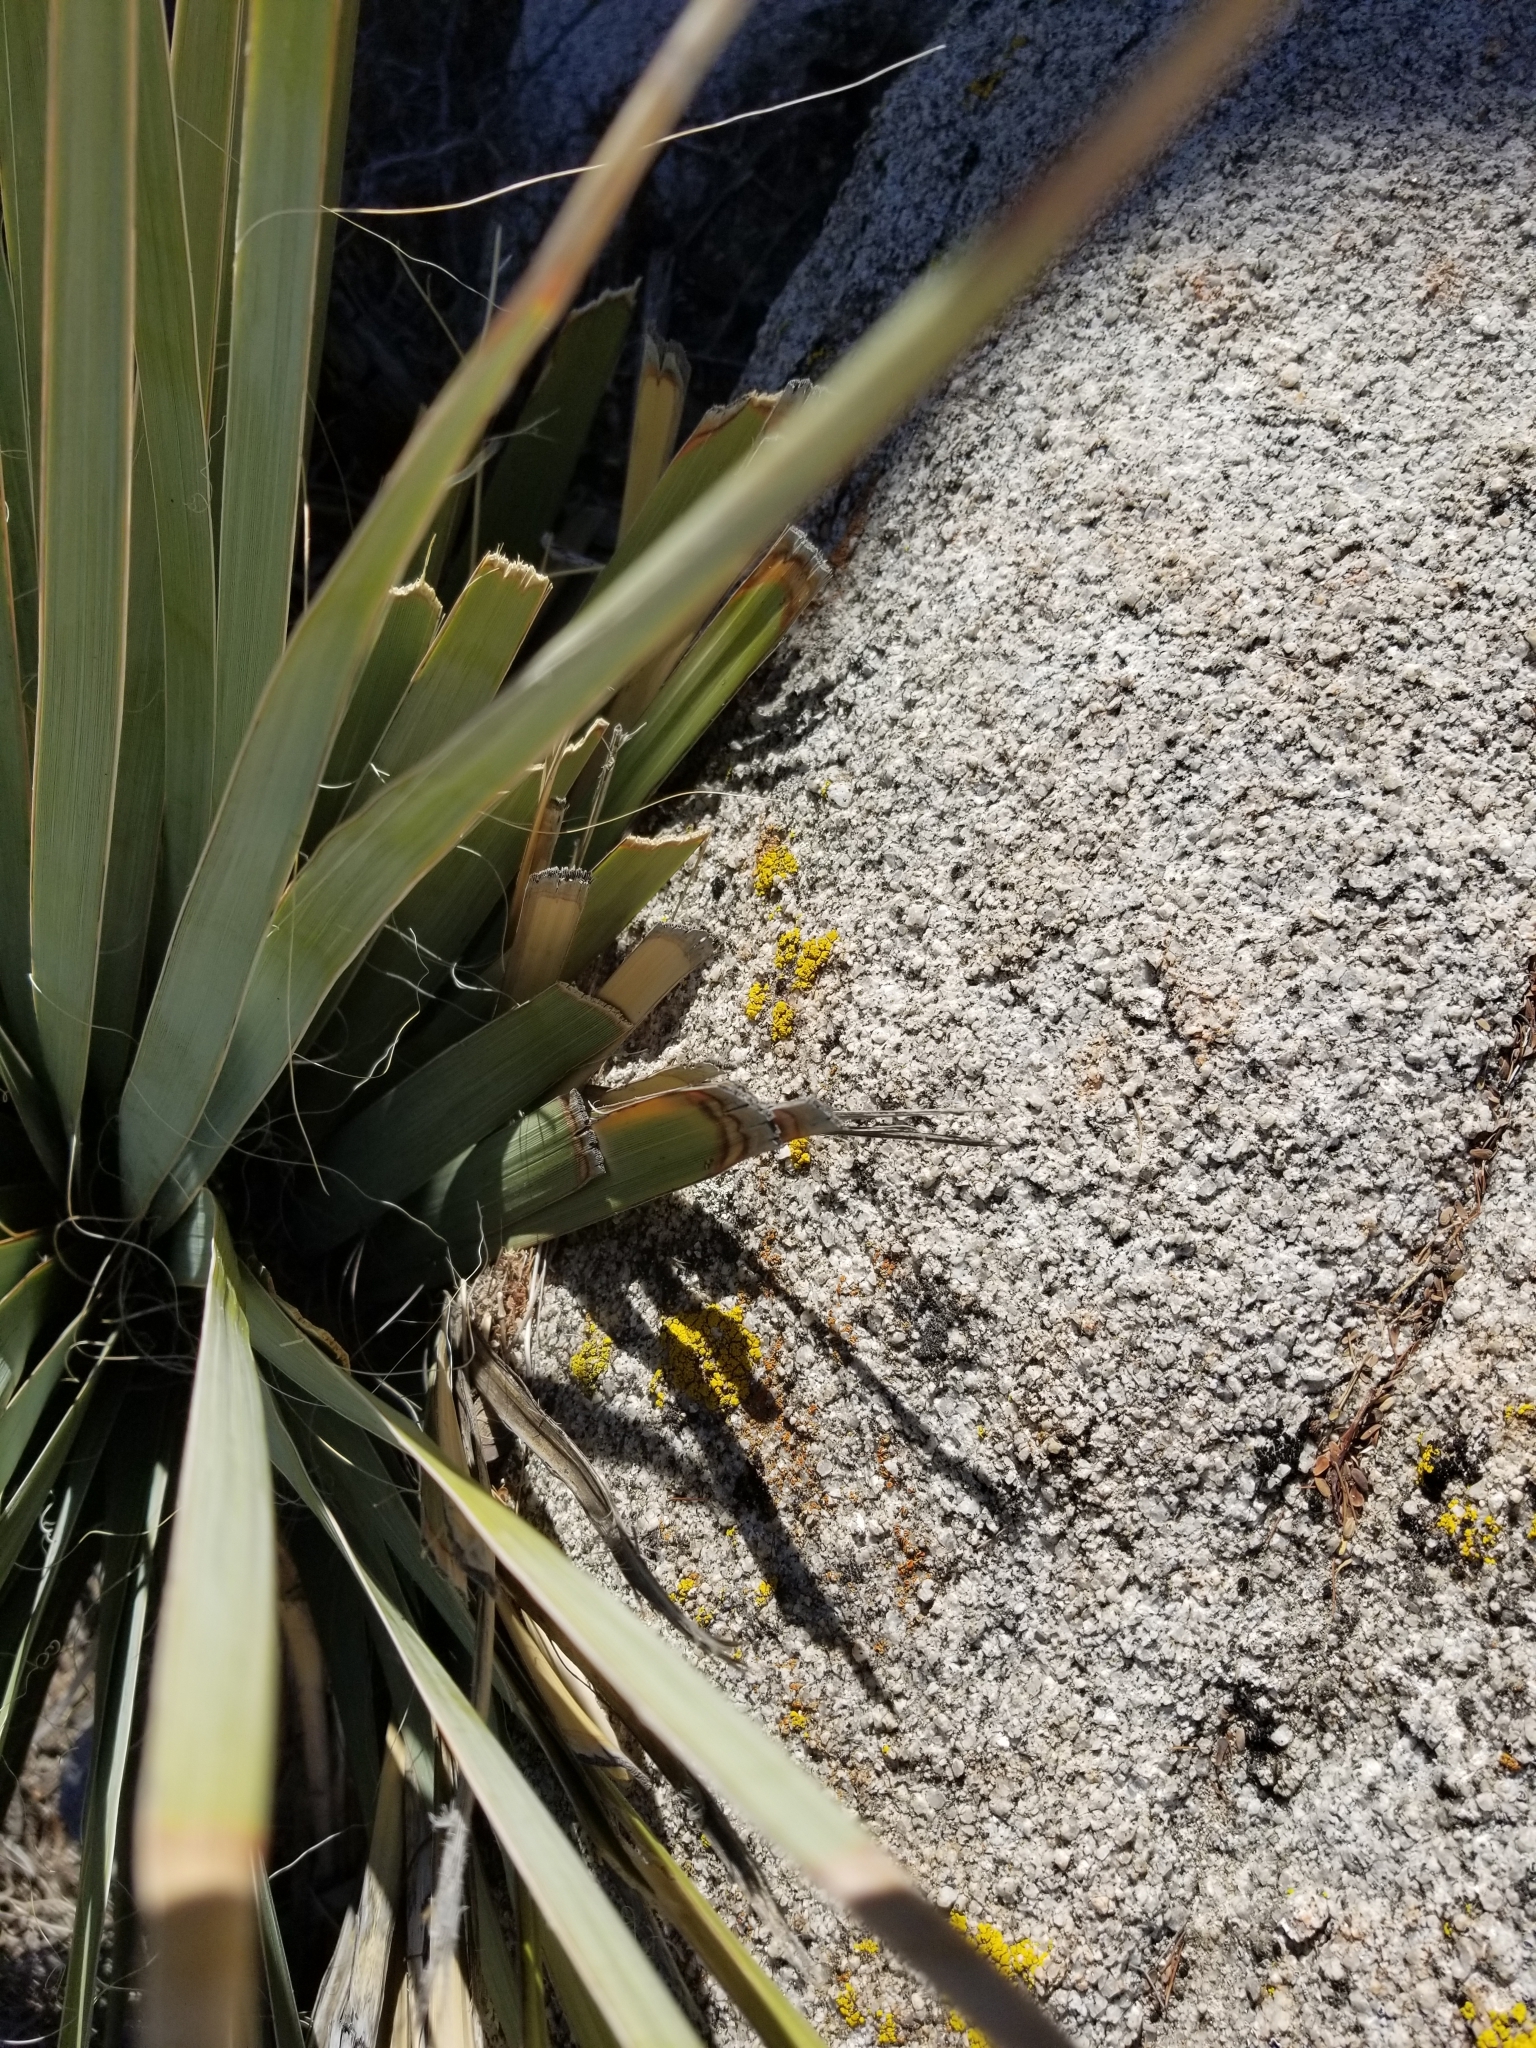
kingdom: Plantae
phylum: Tracheophyta
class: Liliopsida
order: Asparagales
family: Asparagaceae
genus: Nolina
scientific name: Nolina bigelovii
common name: Bigelow bear-grass
